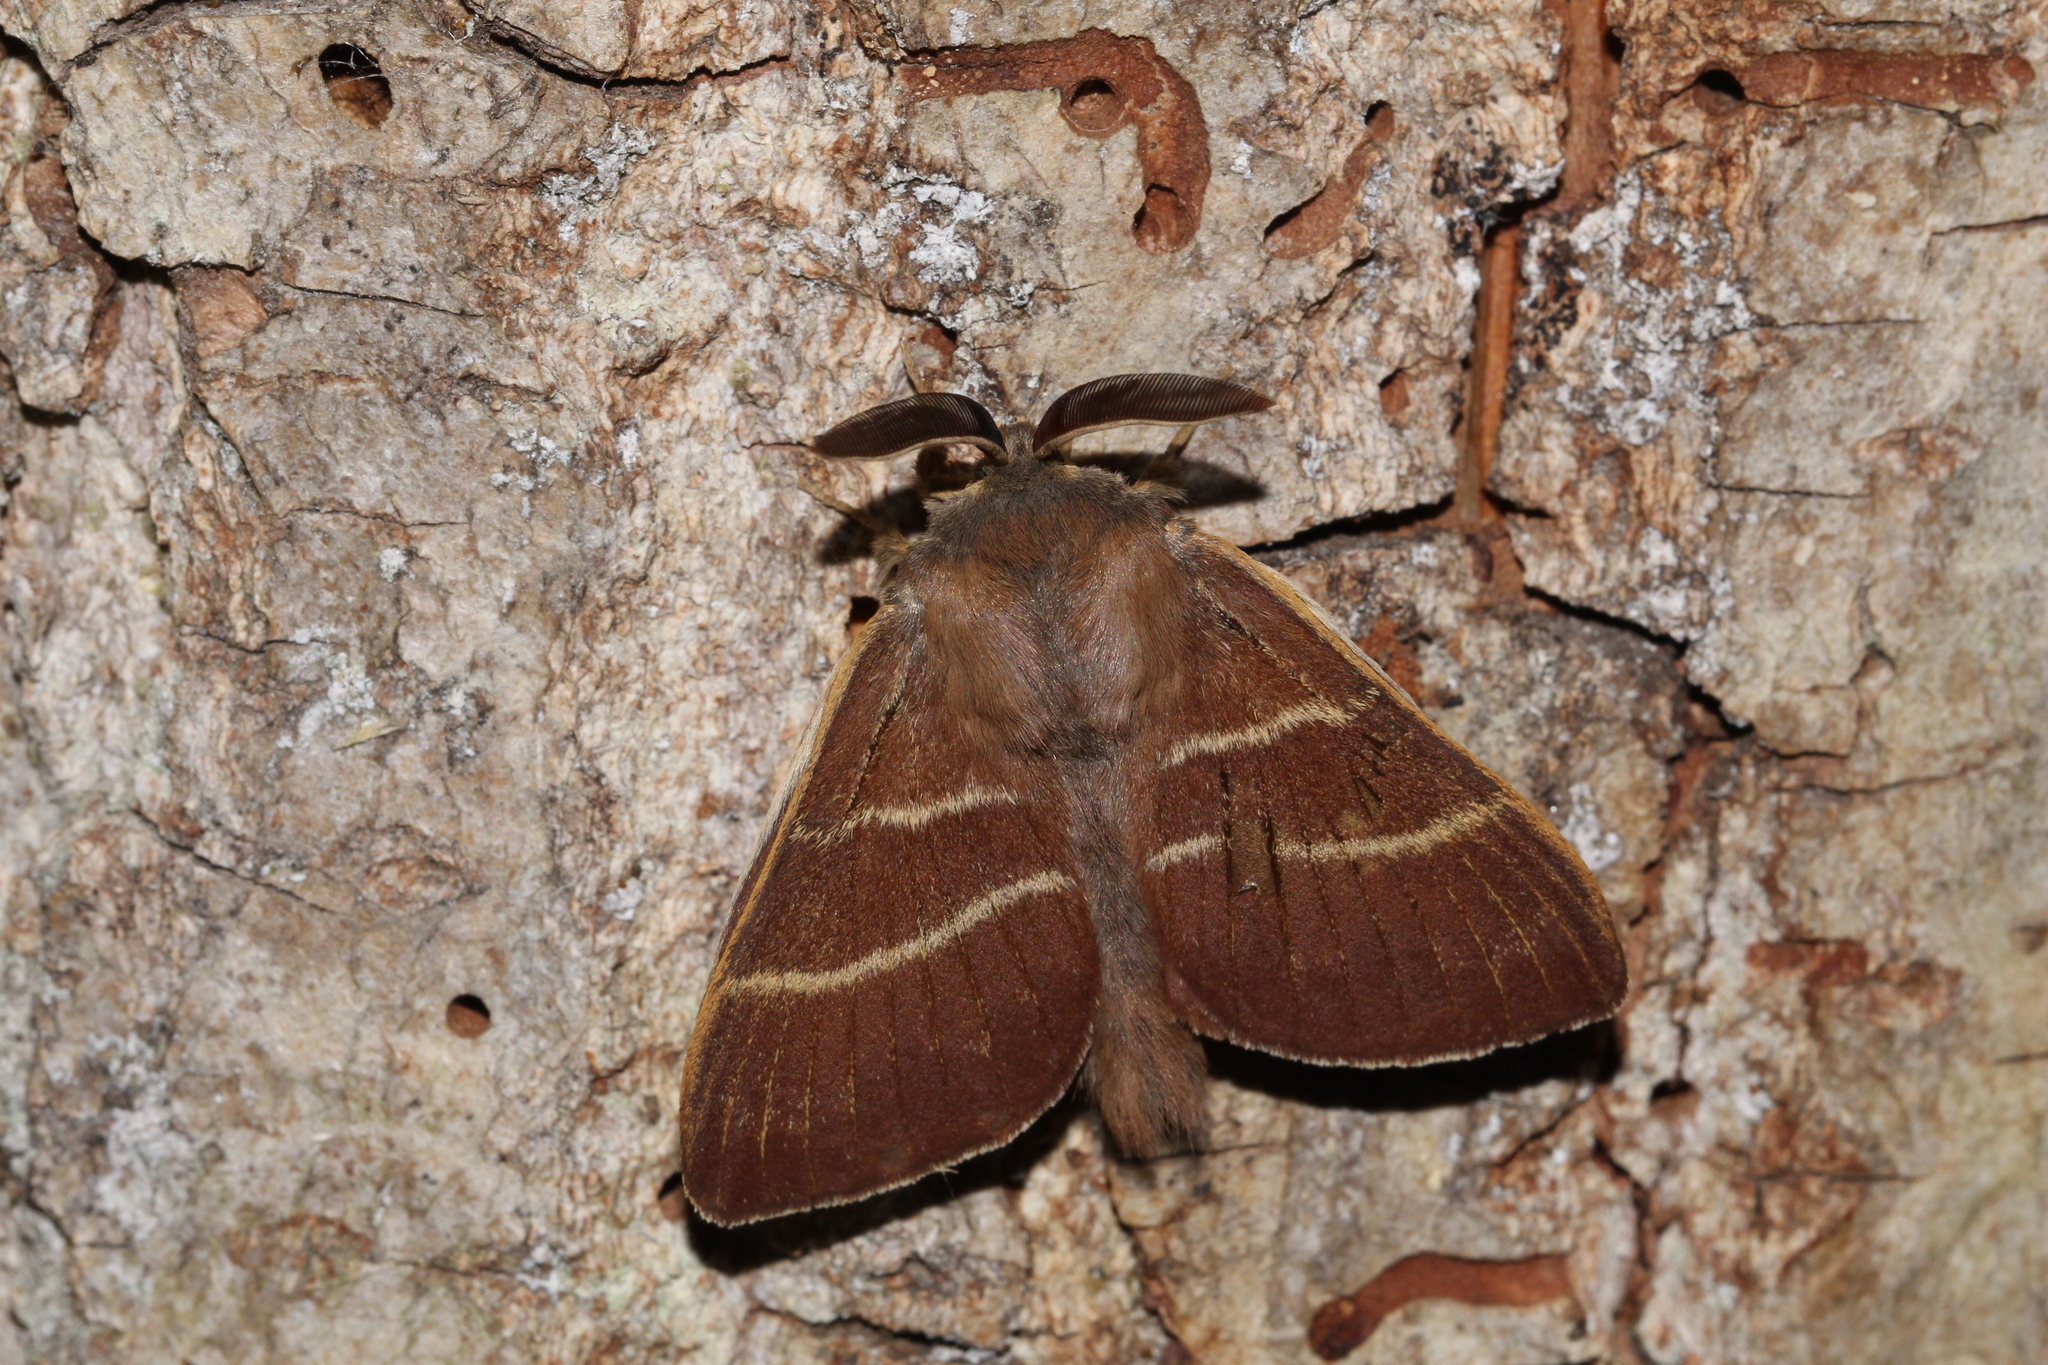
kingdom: Animalia
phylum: Arthropoda
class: Insecta
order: Lepidoptera
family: Lasiocampidae
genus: Macrothylacia
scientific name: Macrothylacia rubi
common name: Fox moth
